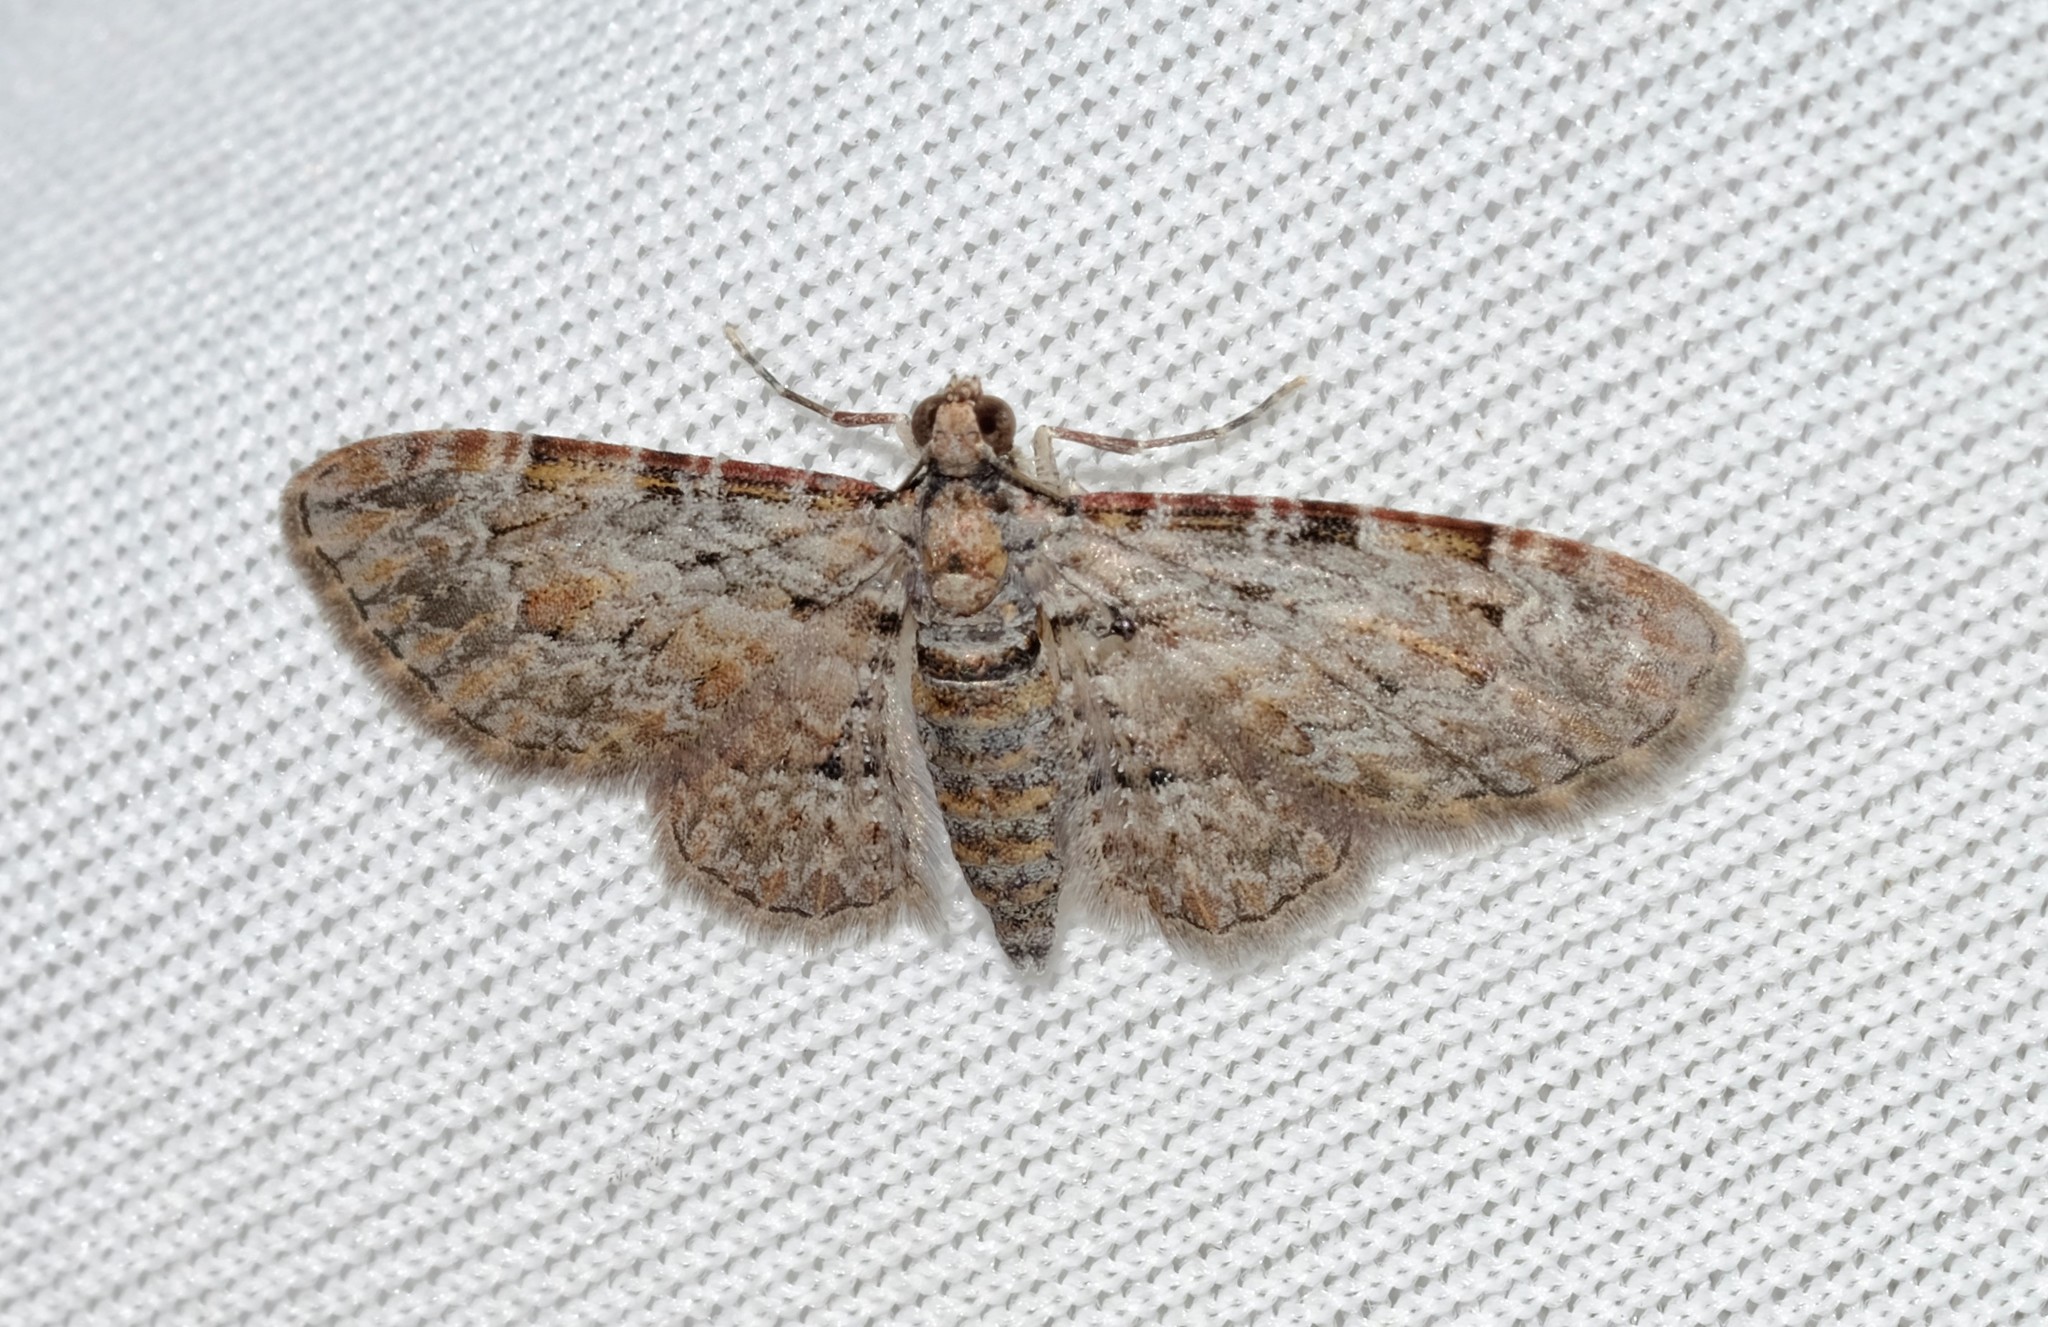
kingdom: Animalia
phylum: Arthropoda
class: Insecta
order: Lepidoptera
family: Geometridae
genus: Chloroclystis
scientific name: Chloroclystis insigillata
